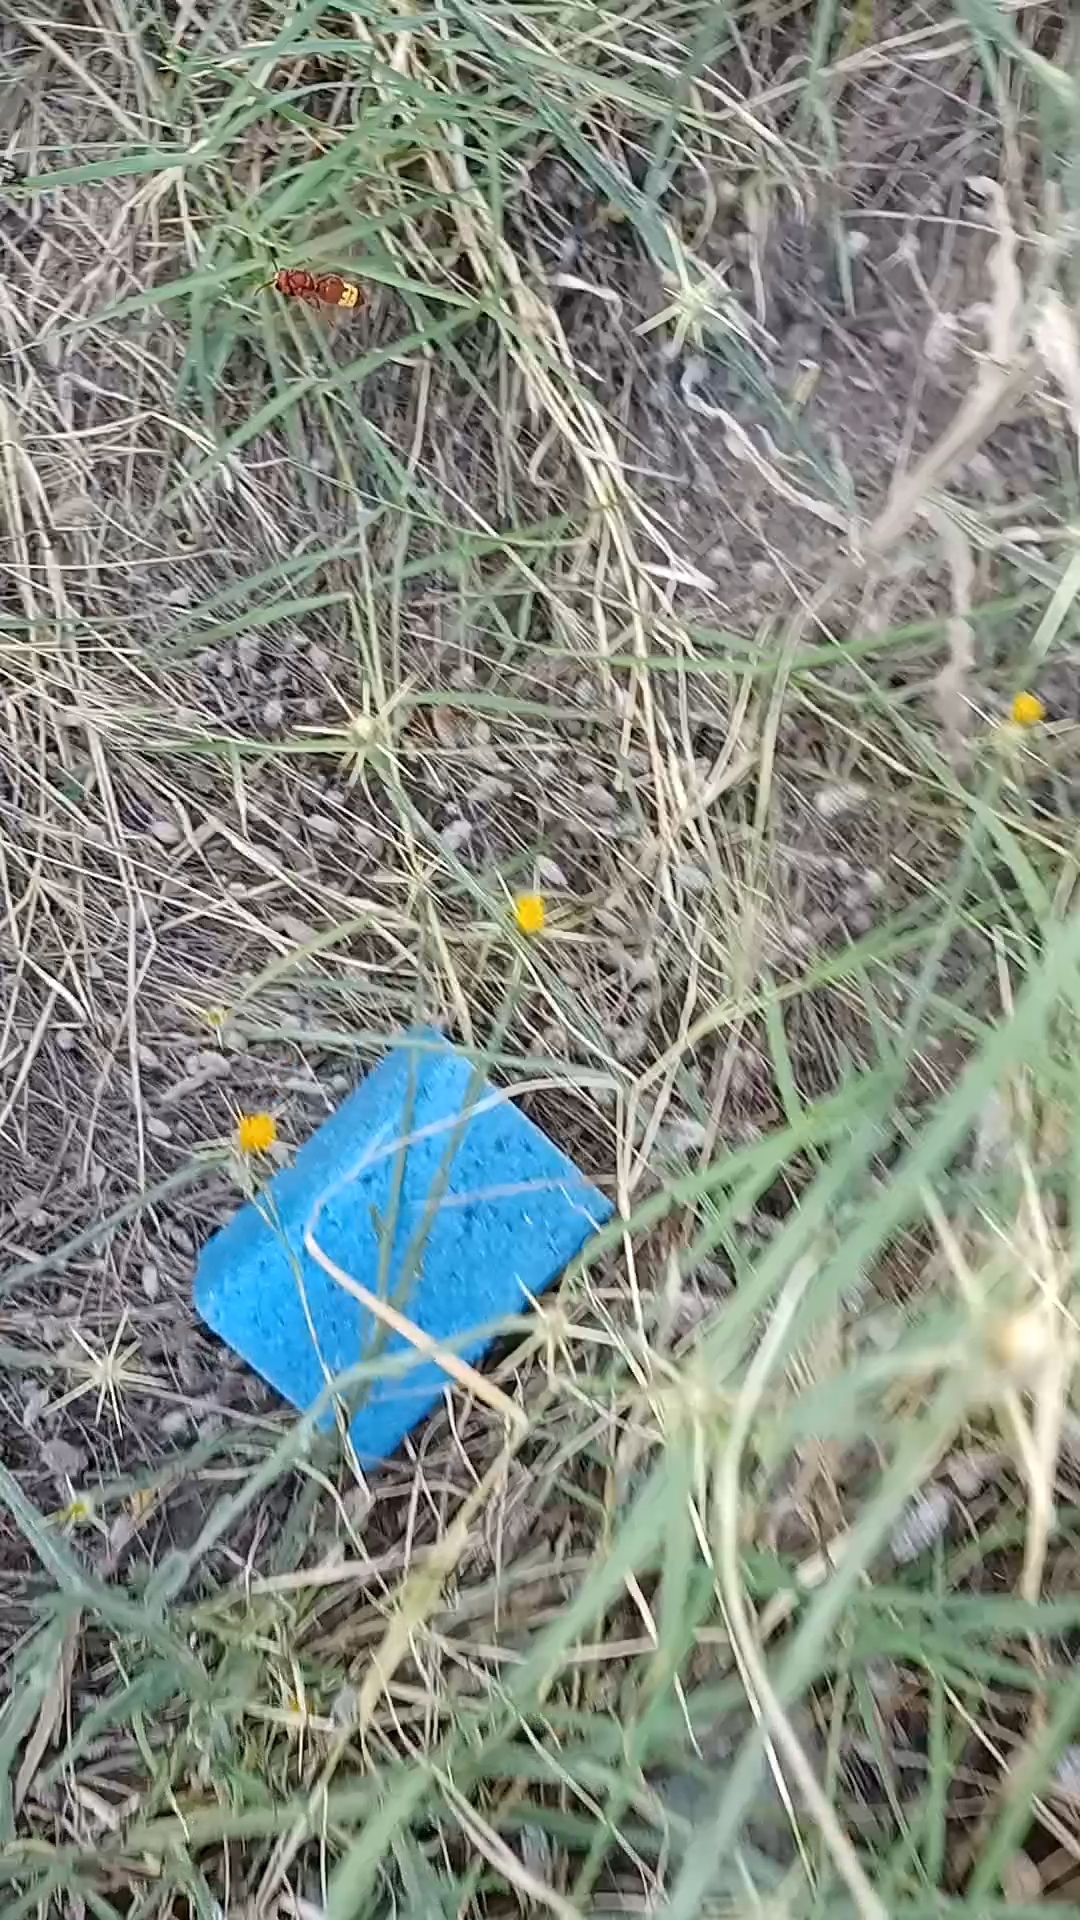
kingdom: Animalia
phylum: Arthropoda
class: Insecta
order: Hymenoptera
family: Vespidae
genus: Vespa
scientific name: Vespa orientalis
